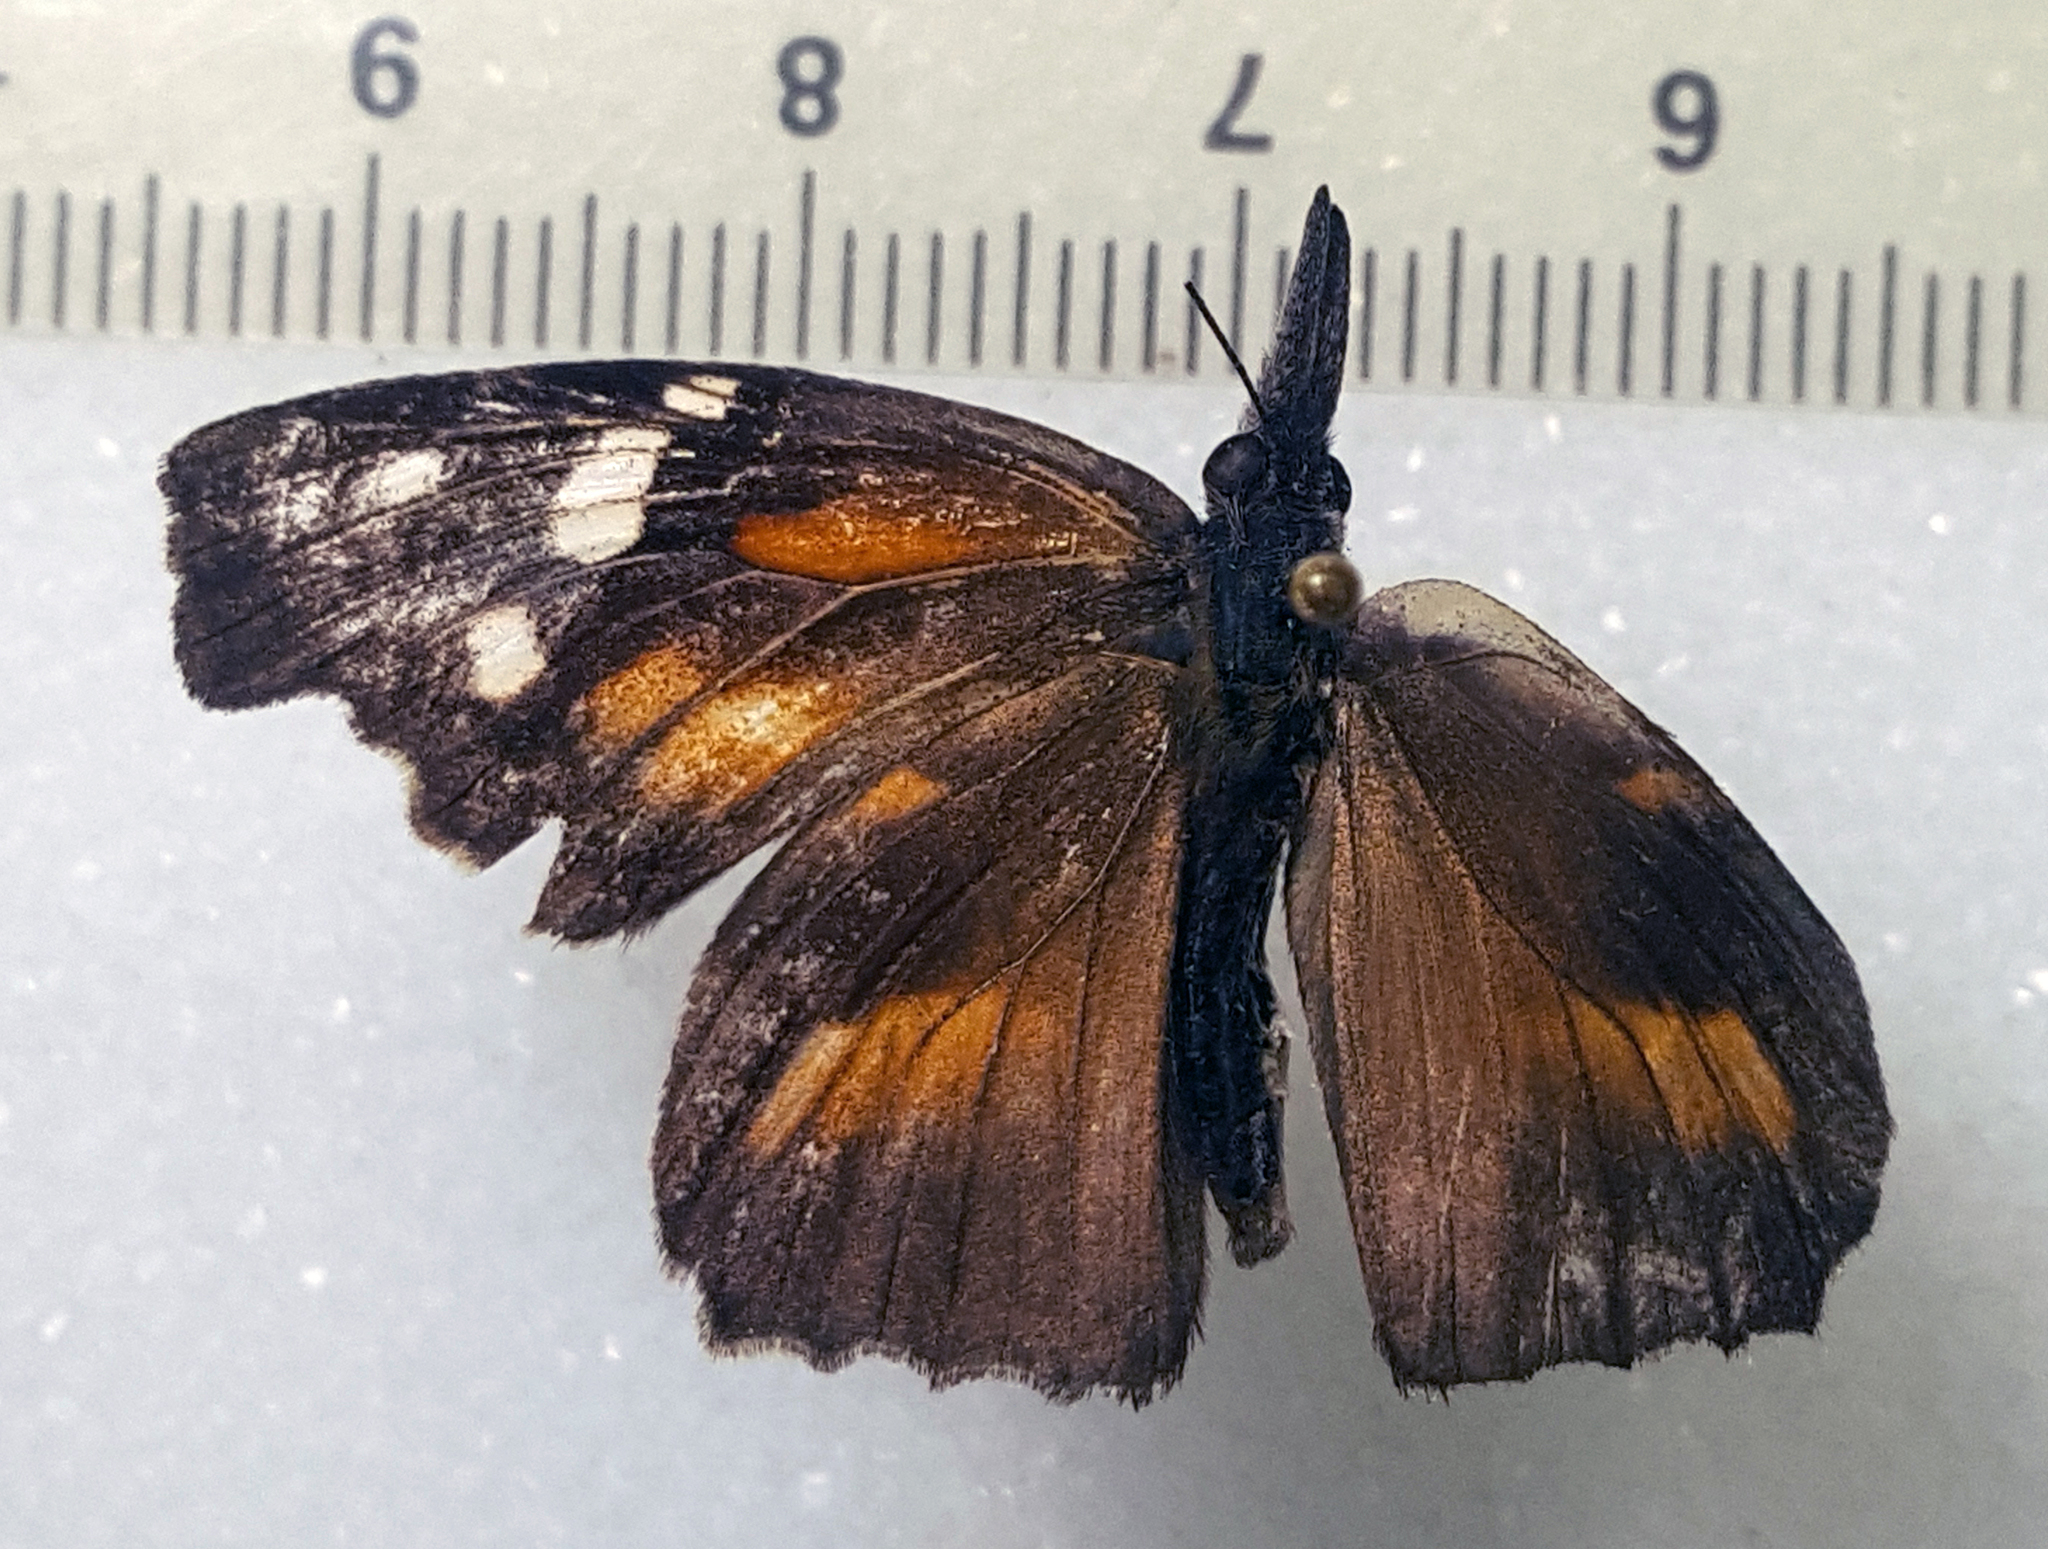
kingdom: Animalia
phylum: Arthropoda
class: Insecta
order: Lepidoptera
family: Nymphalidae
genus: Libytheana
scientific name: Libytheana carinenta
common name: American snout
